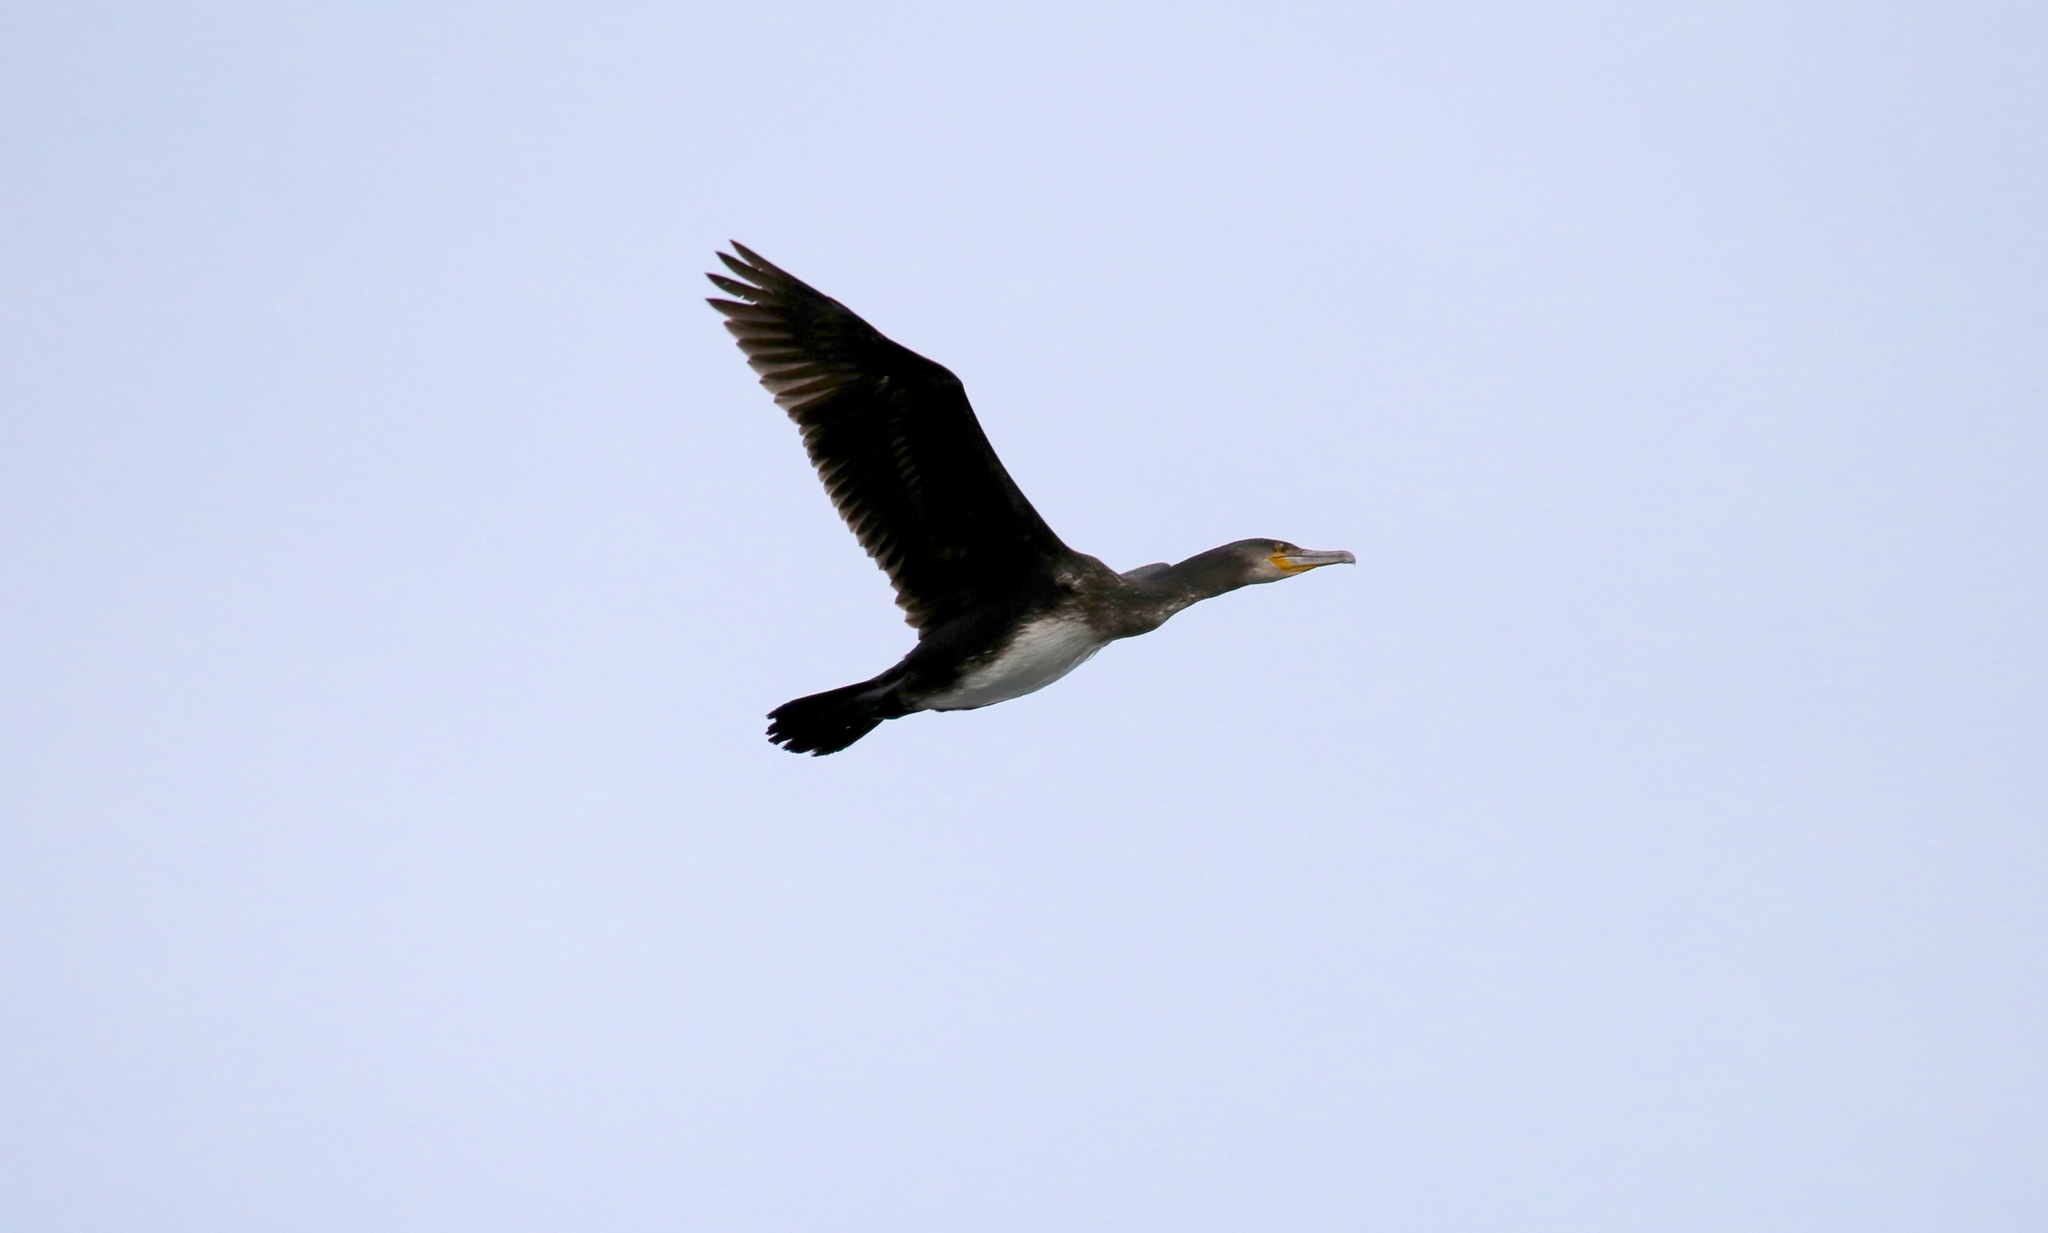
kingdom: Animalia
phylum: Chordata
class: Aves
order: Suliformes
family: Phalacrocoracidae
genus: Phalacrocorax
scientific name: Phalacrocorax carbo
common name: Great cormorant
